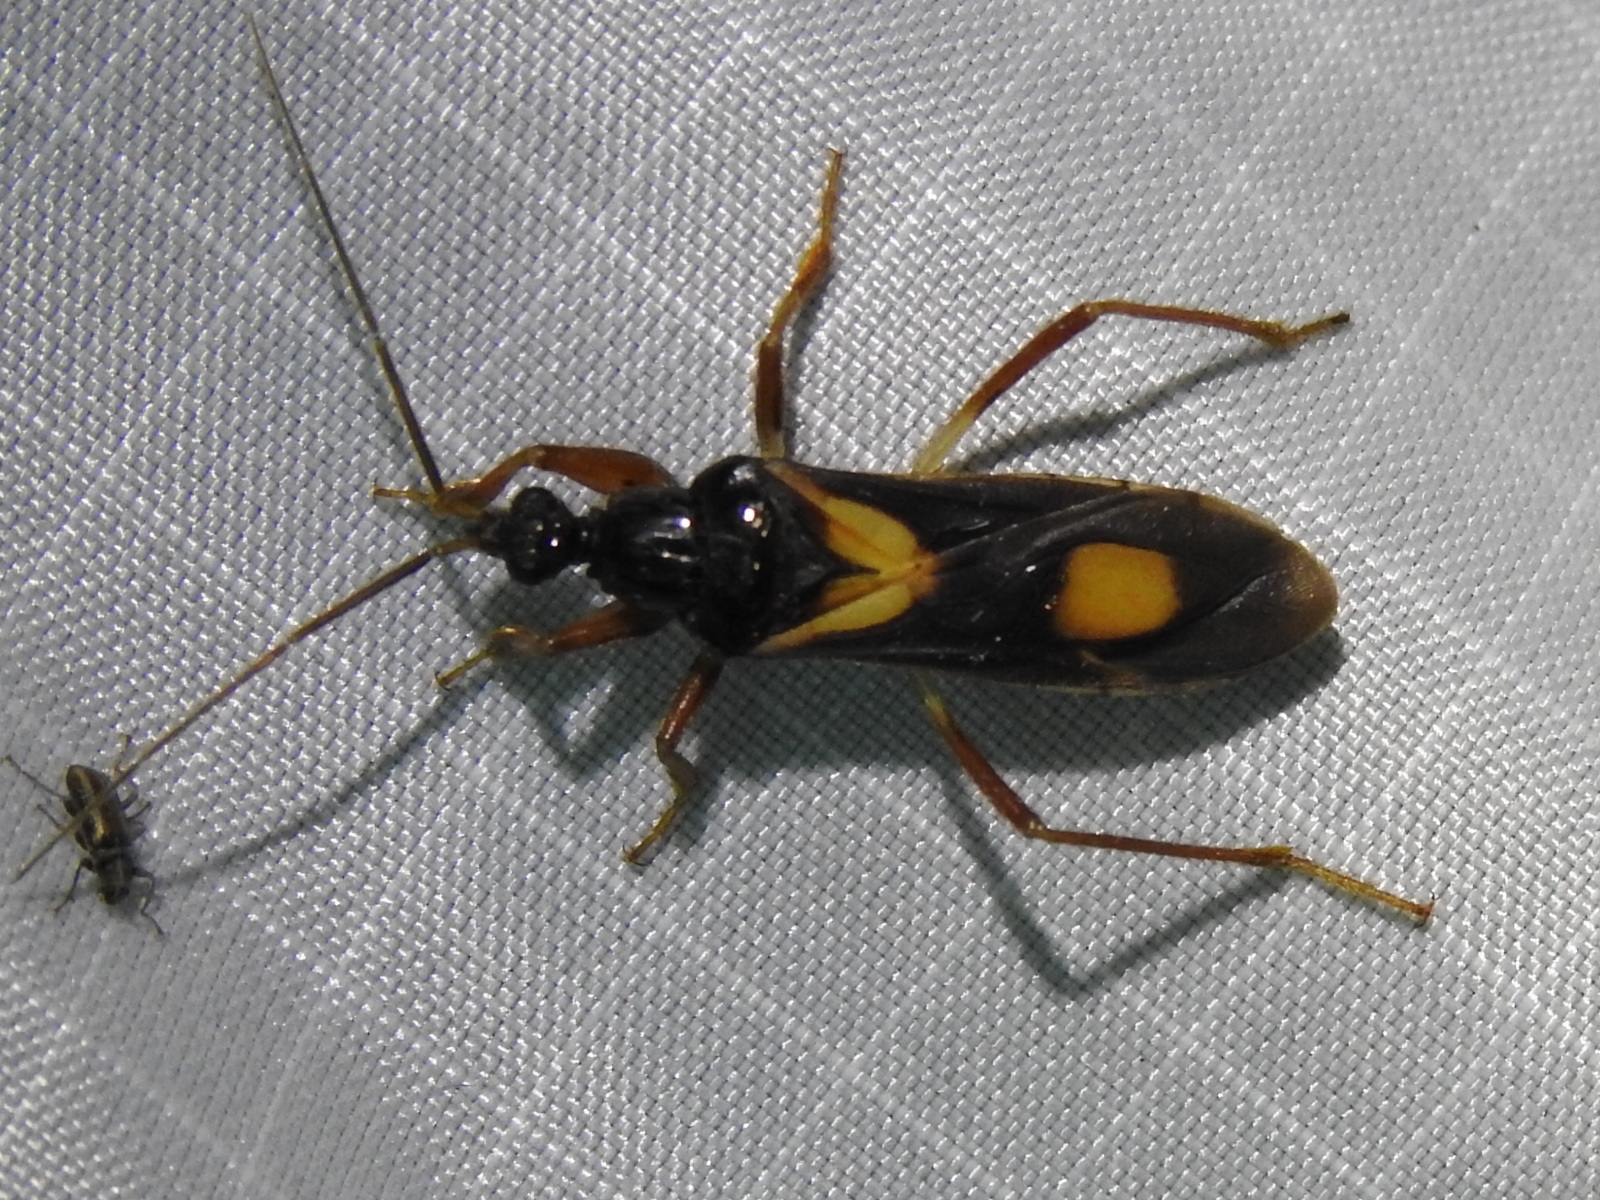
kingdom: Animalia
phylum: Arthropoda
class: Insecta
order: Hemiptera
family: Reduviidae
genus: Rasahus
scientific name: Rasahus hamatus
